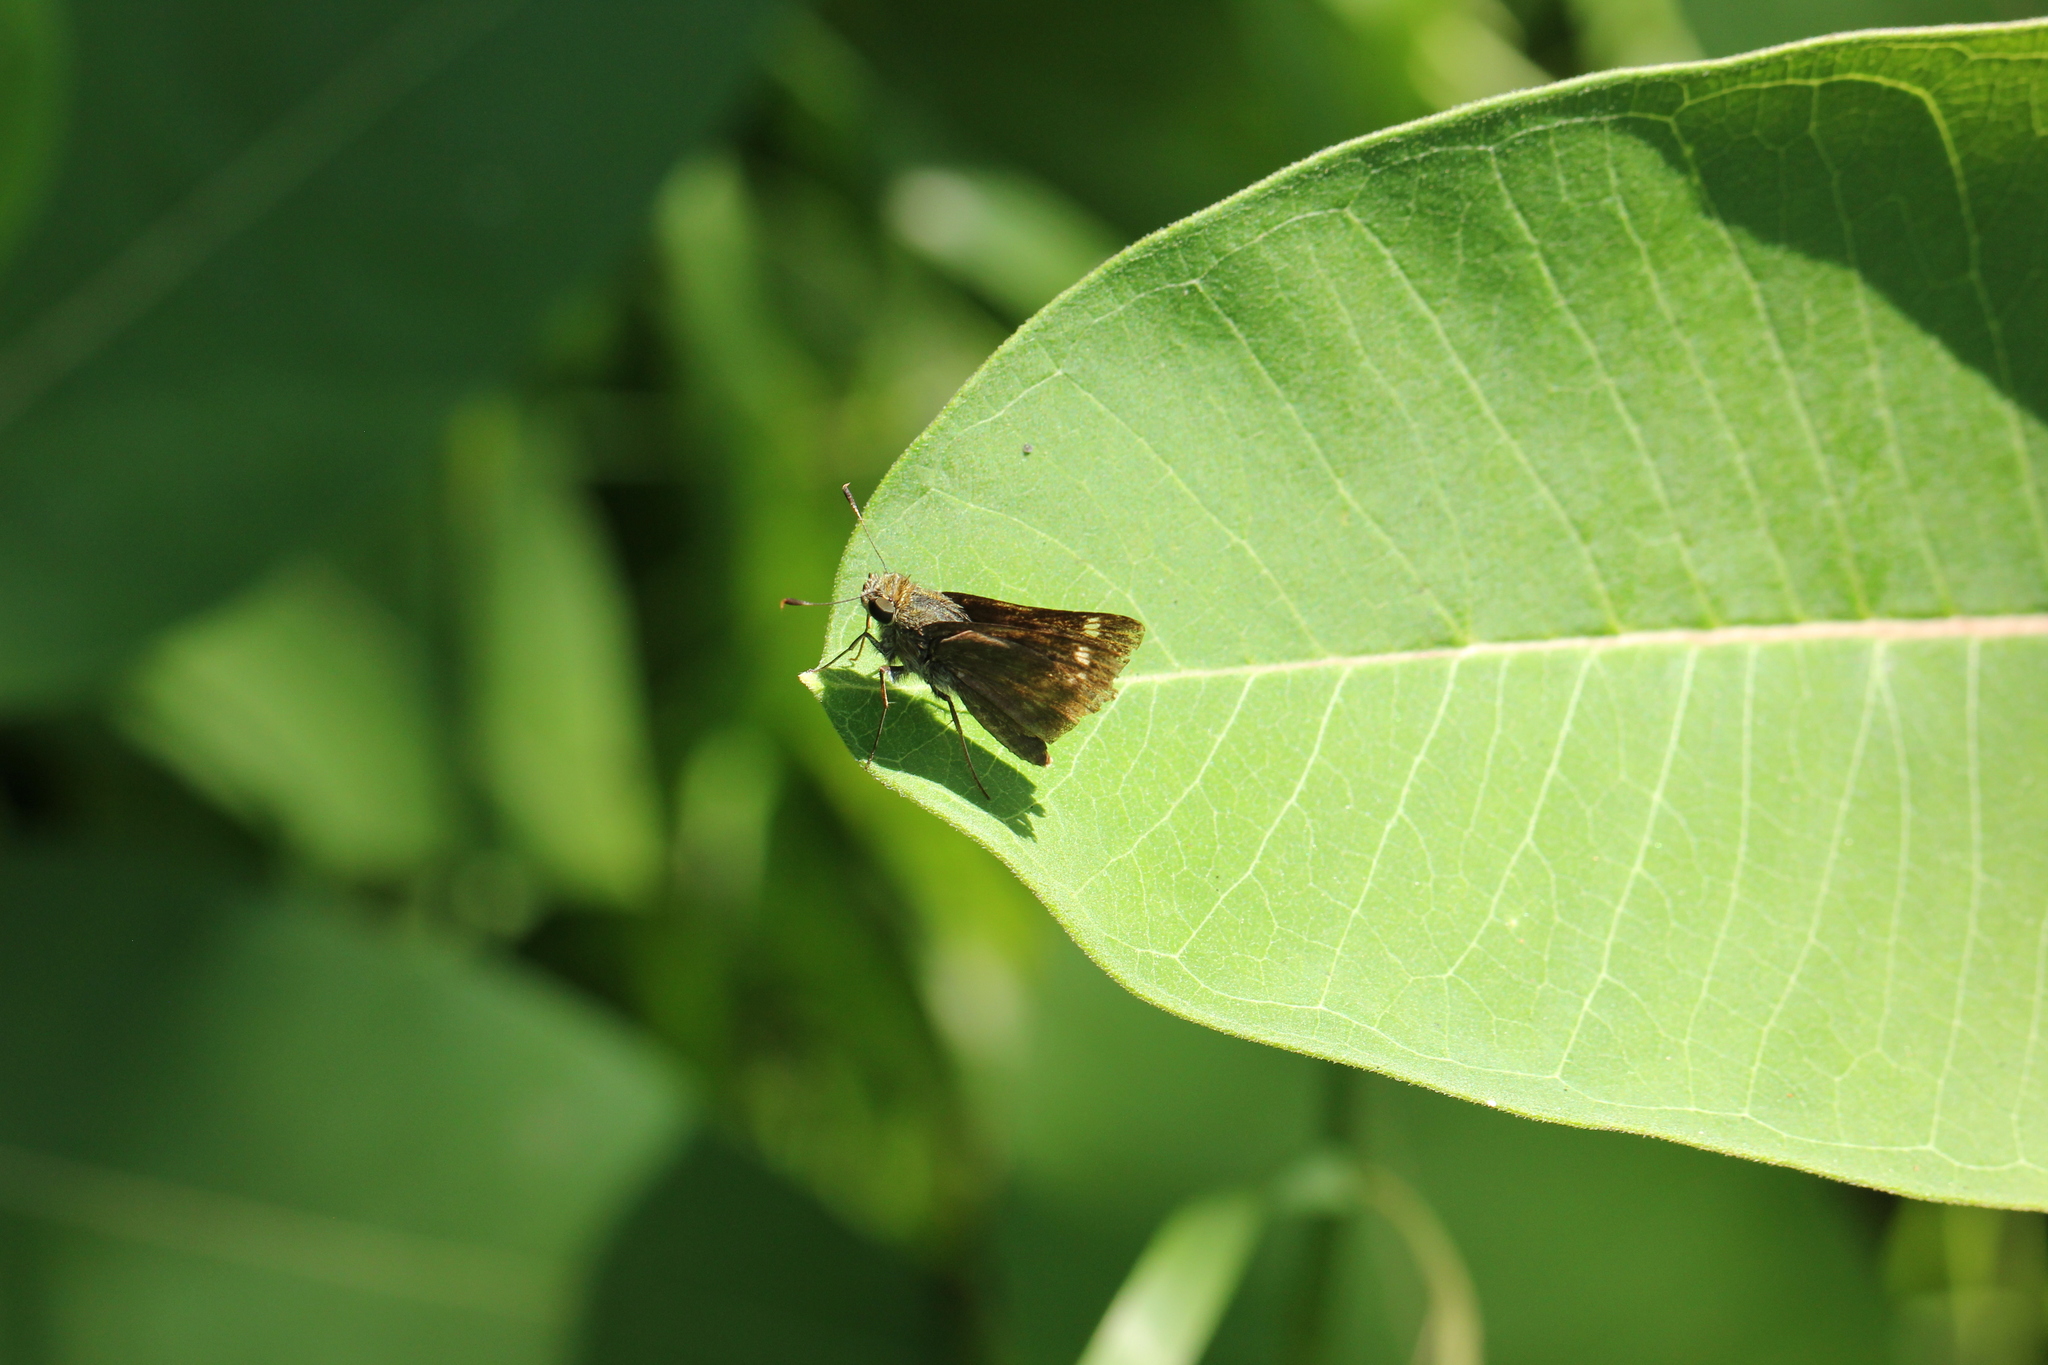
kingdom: Animalia
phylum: Arthropoda
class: Insecta
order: Lepidoptera
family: Hesperiidae
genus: Vernia
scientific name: Vernia verna
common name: Little glassywing
